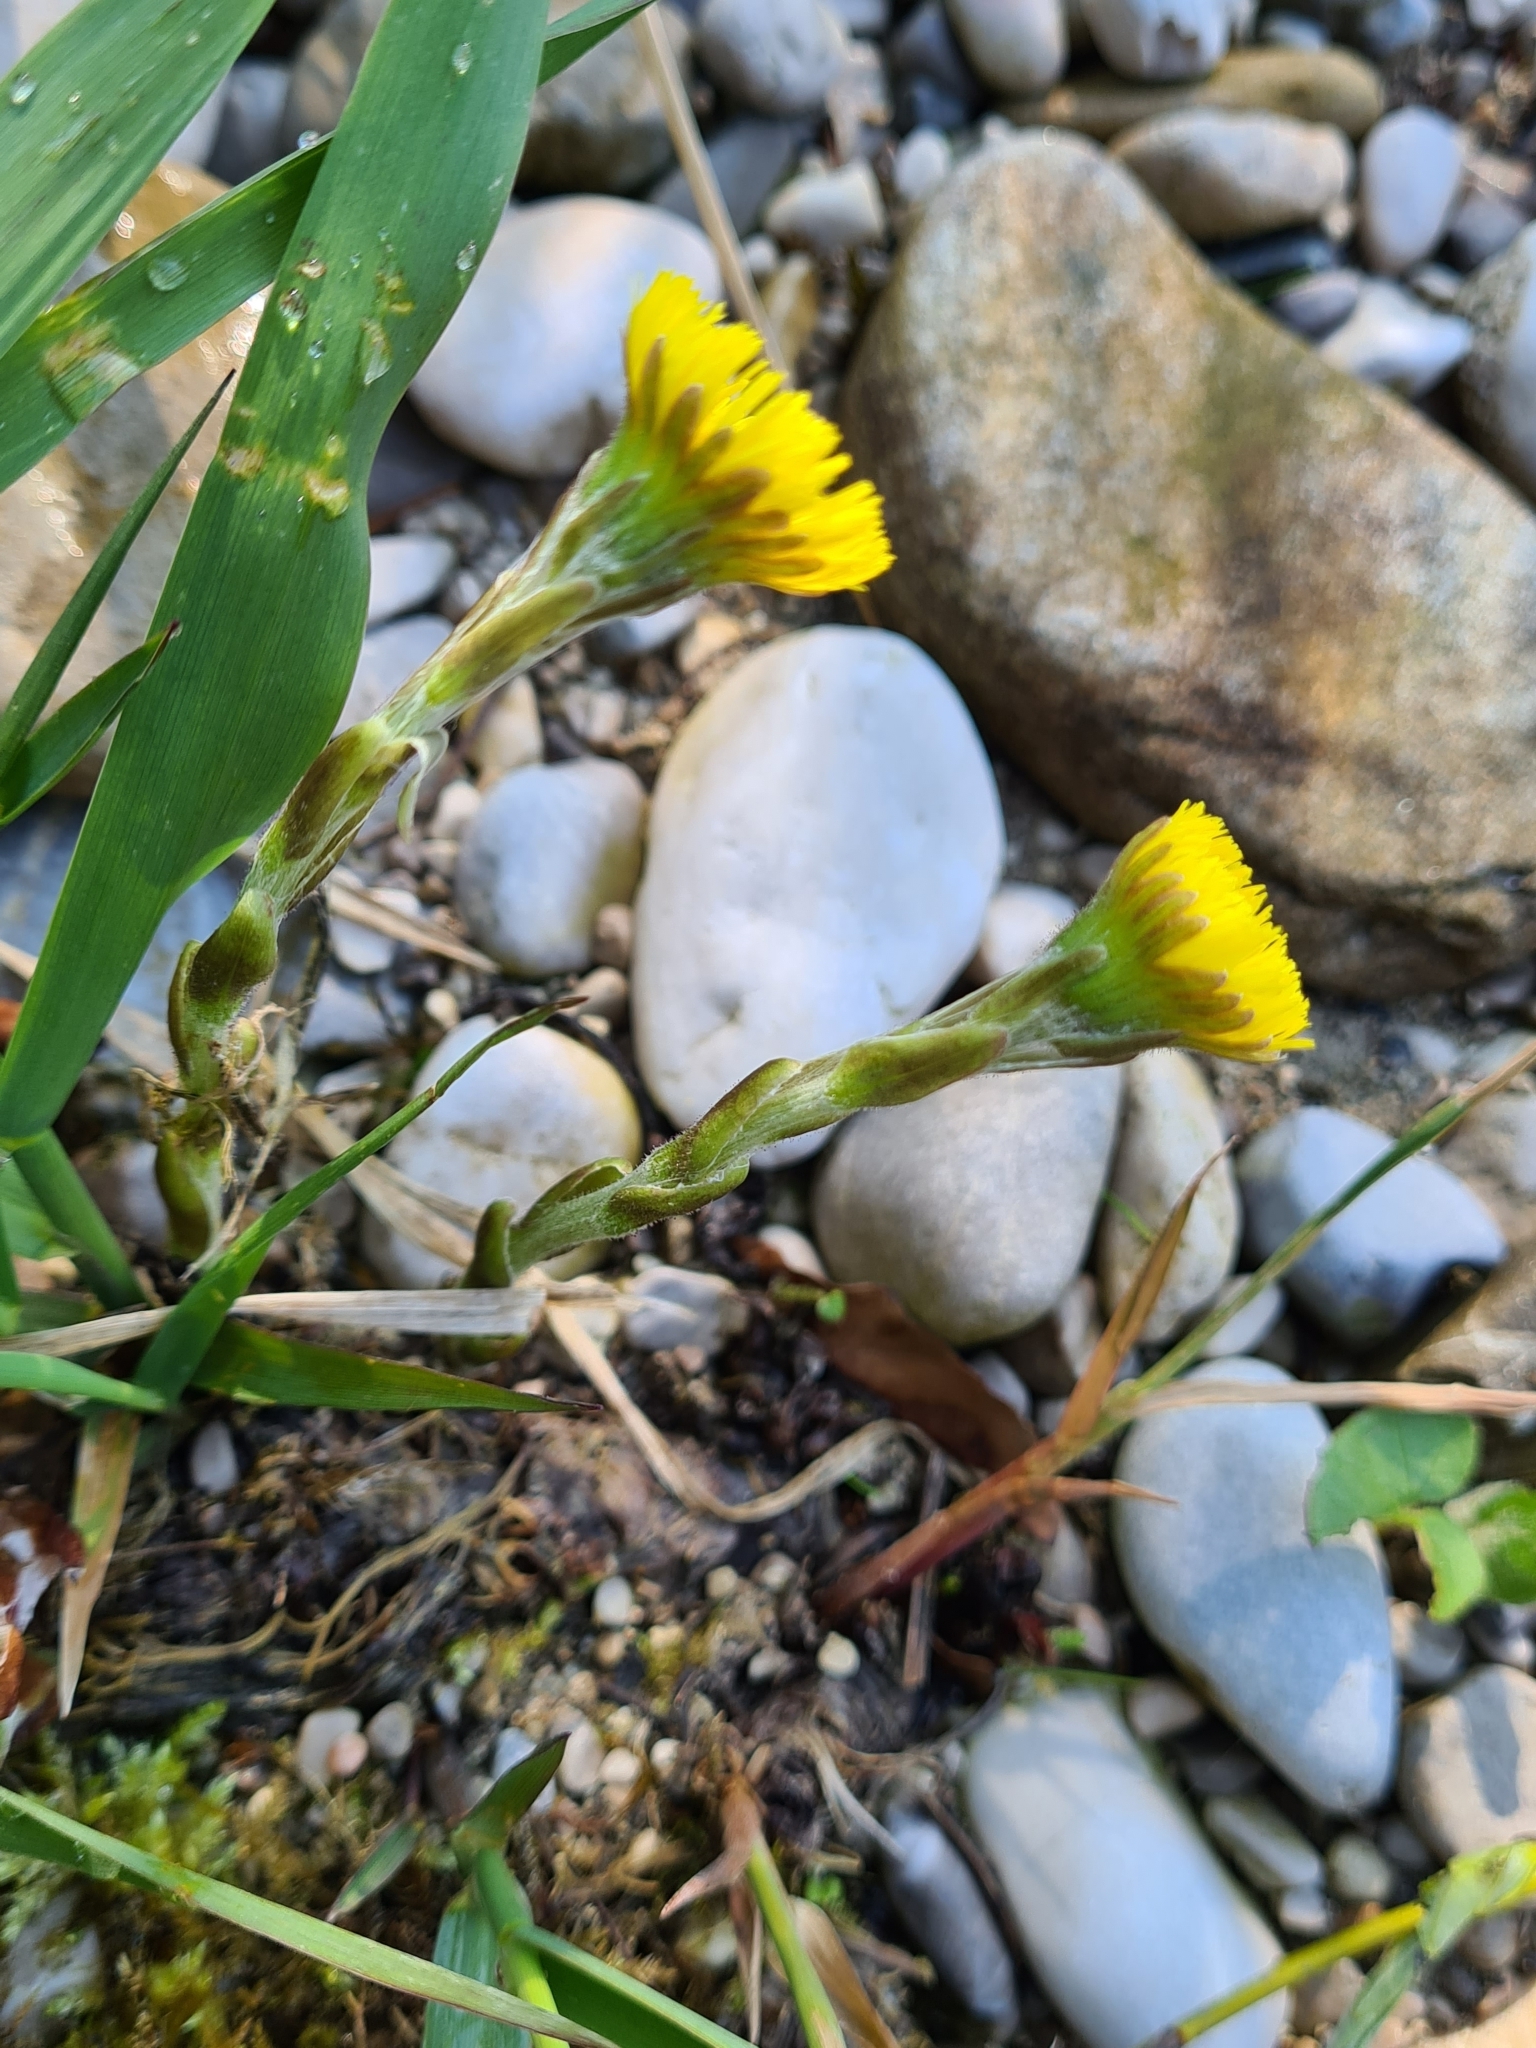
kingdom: Plantae
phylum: Tracheophyta
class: Magnoliopsida
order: Asterales
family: Asteraceae
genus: Tussilago
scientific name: Tussilago farfara
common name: Coltsfoot
